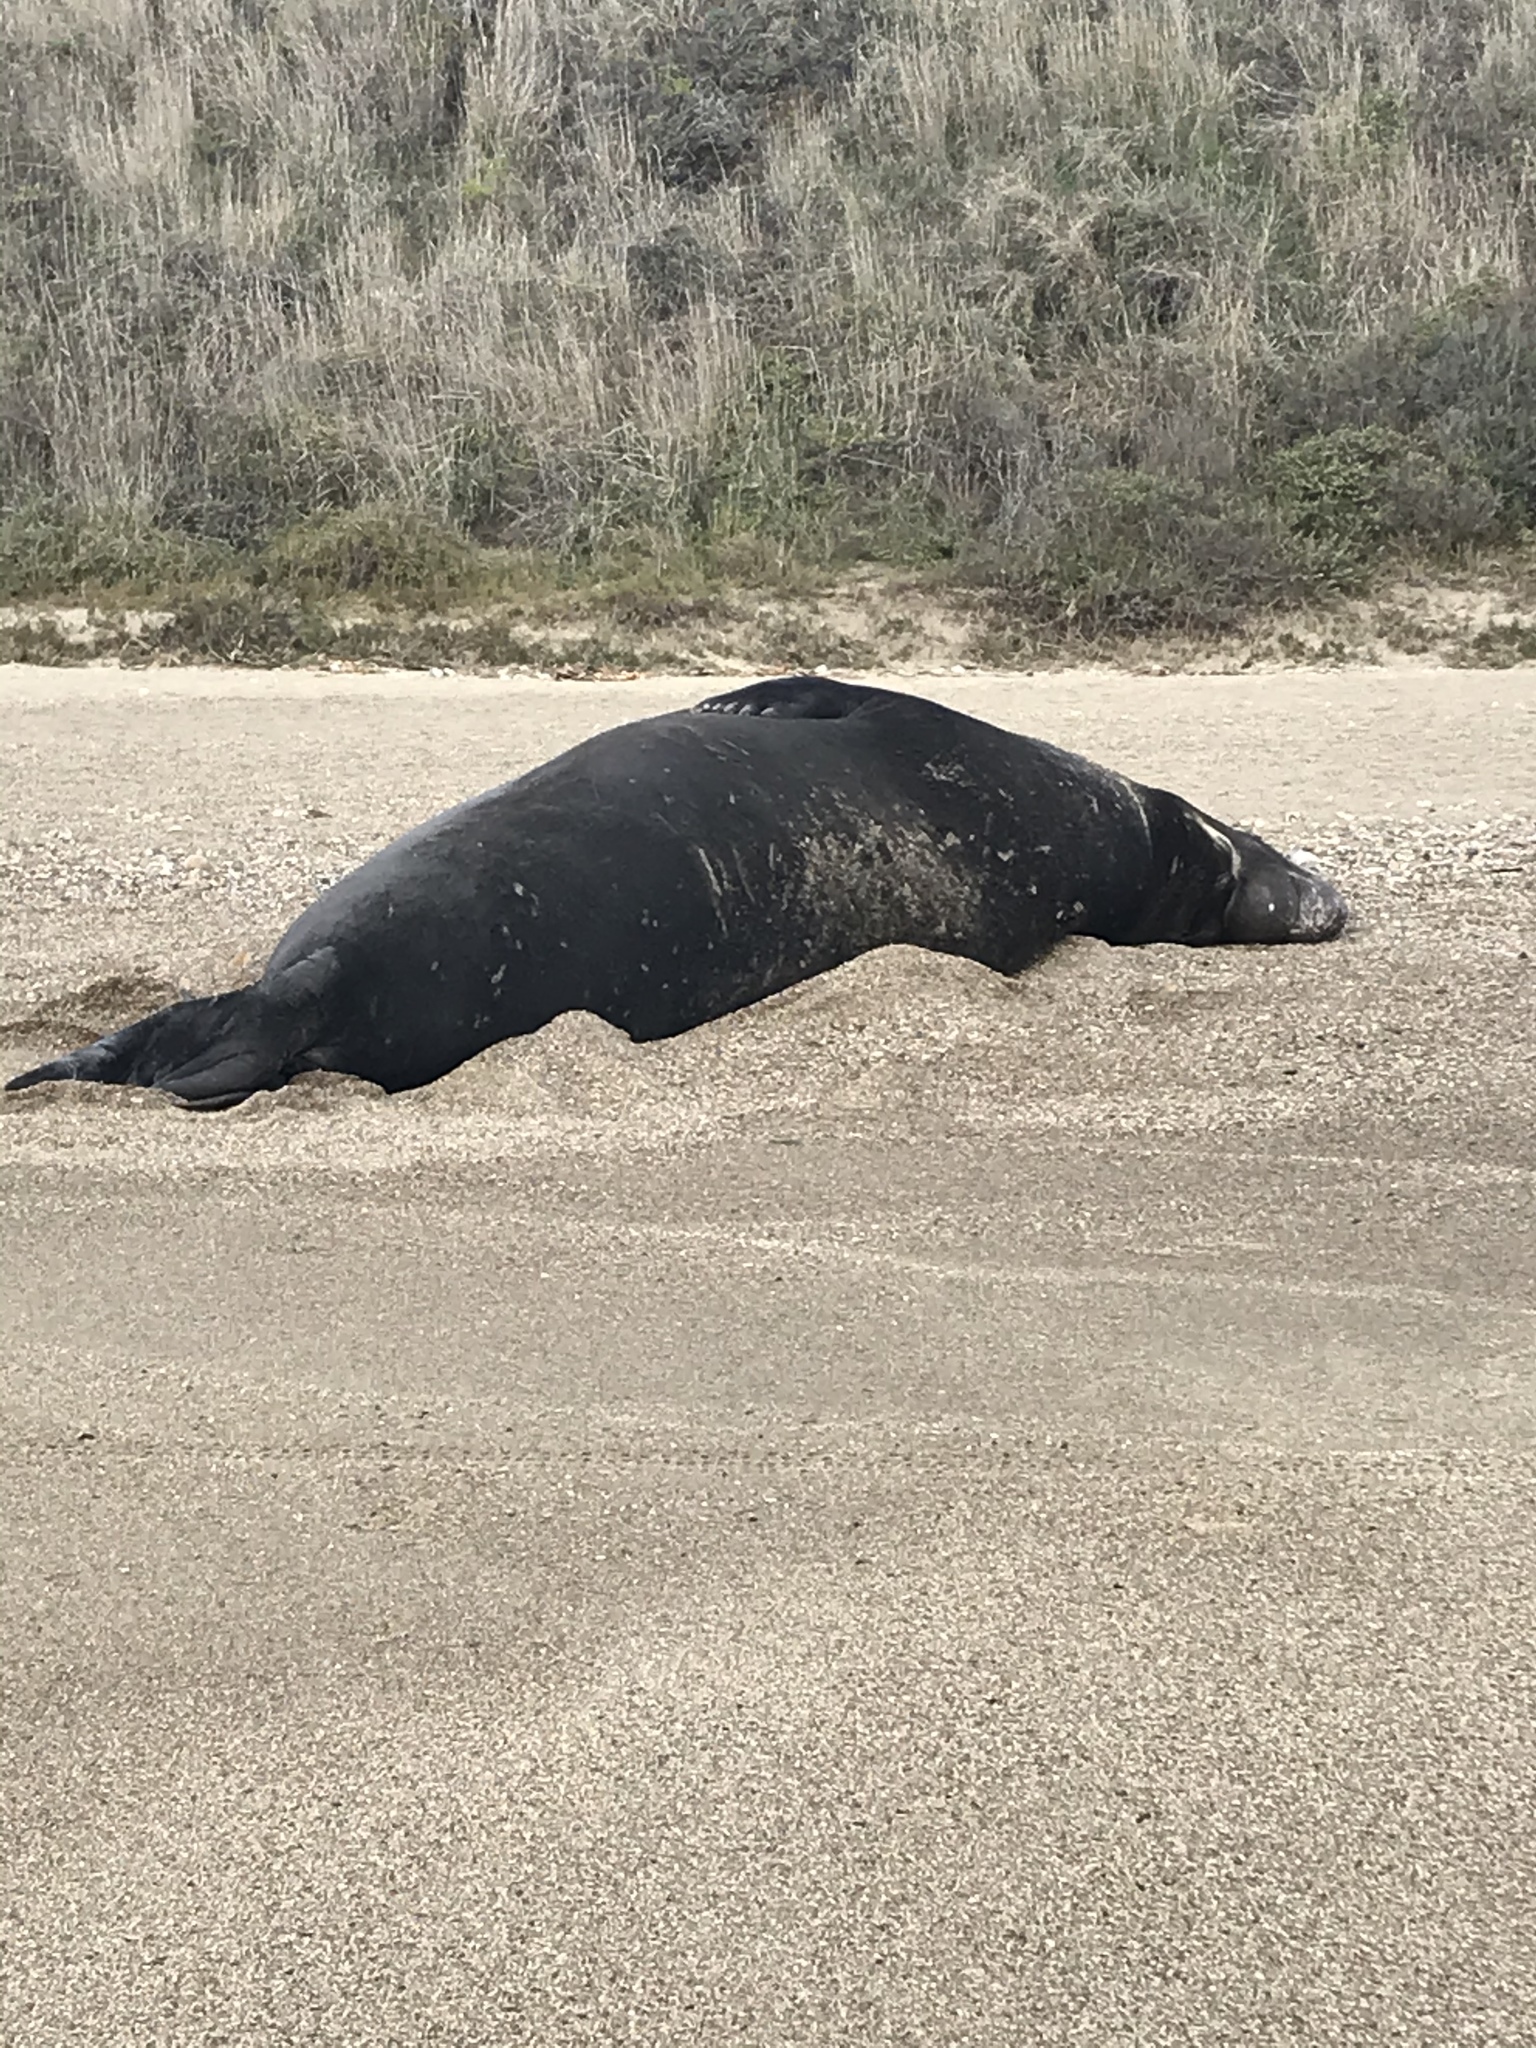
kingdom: Animalia
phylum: Chordata
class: Mammalia
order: Carnivora
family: Phocidae
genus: Mirounga
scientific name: Mirounga angustirostris
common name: Northern elephant seal
